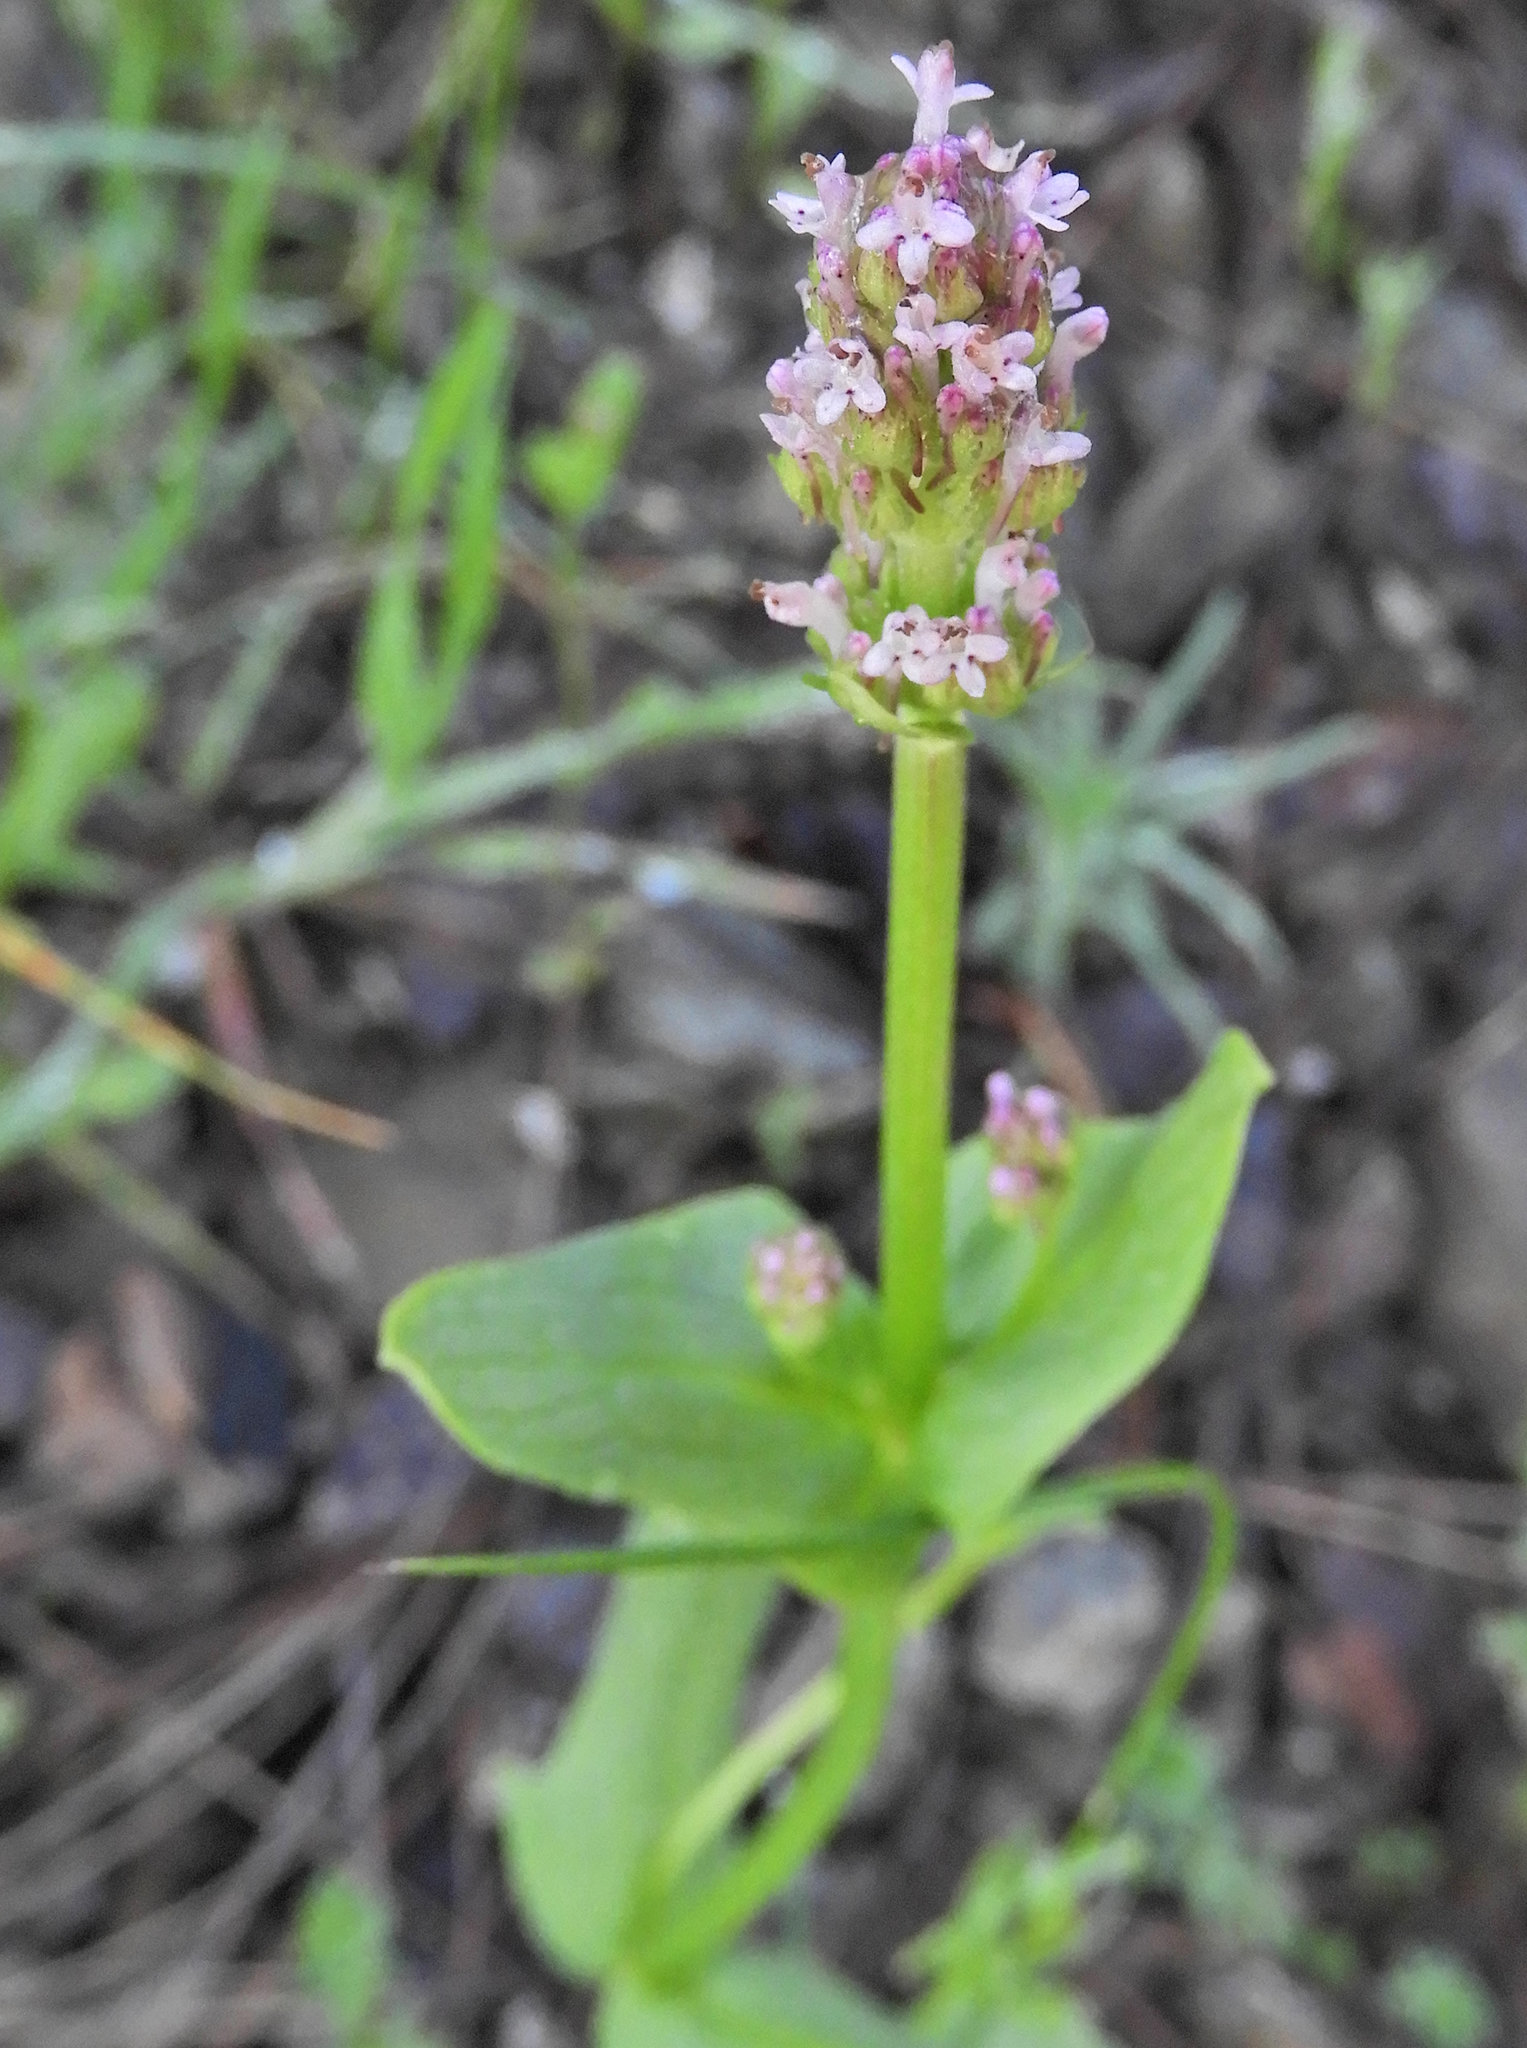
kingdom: Plantae
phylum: Tracheophyta
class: Magnoliopsida
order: Dipsacales
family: Caprifoliaceae
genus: Plectritis
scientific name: Plectritis ciliosa
